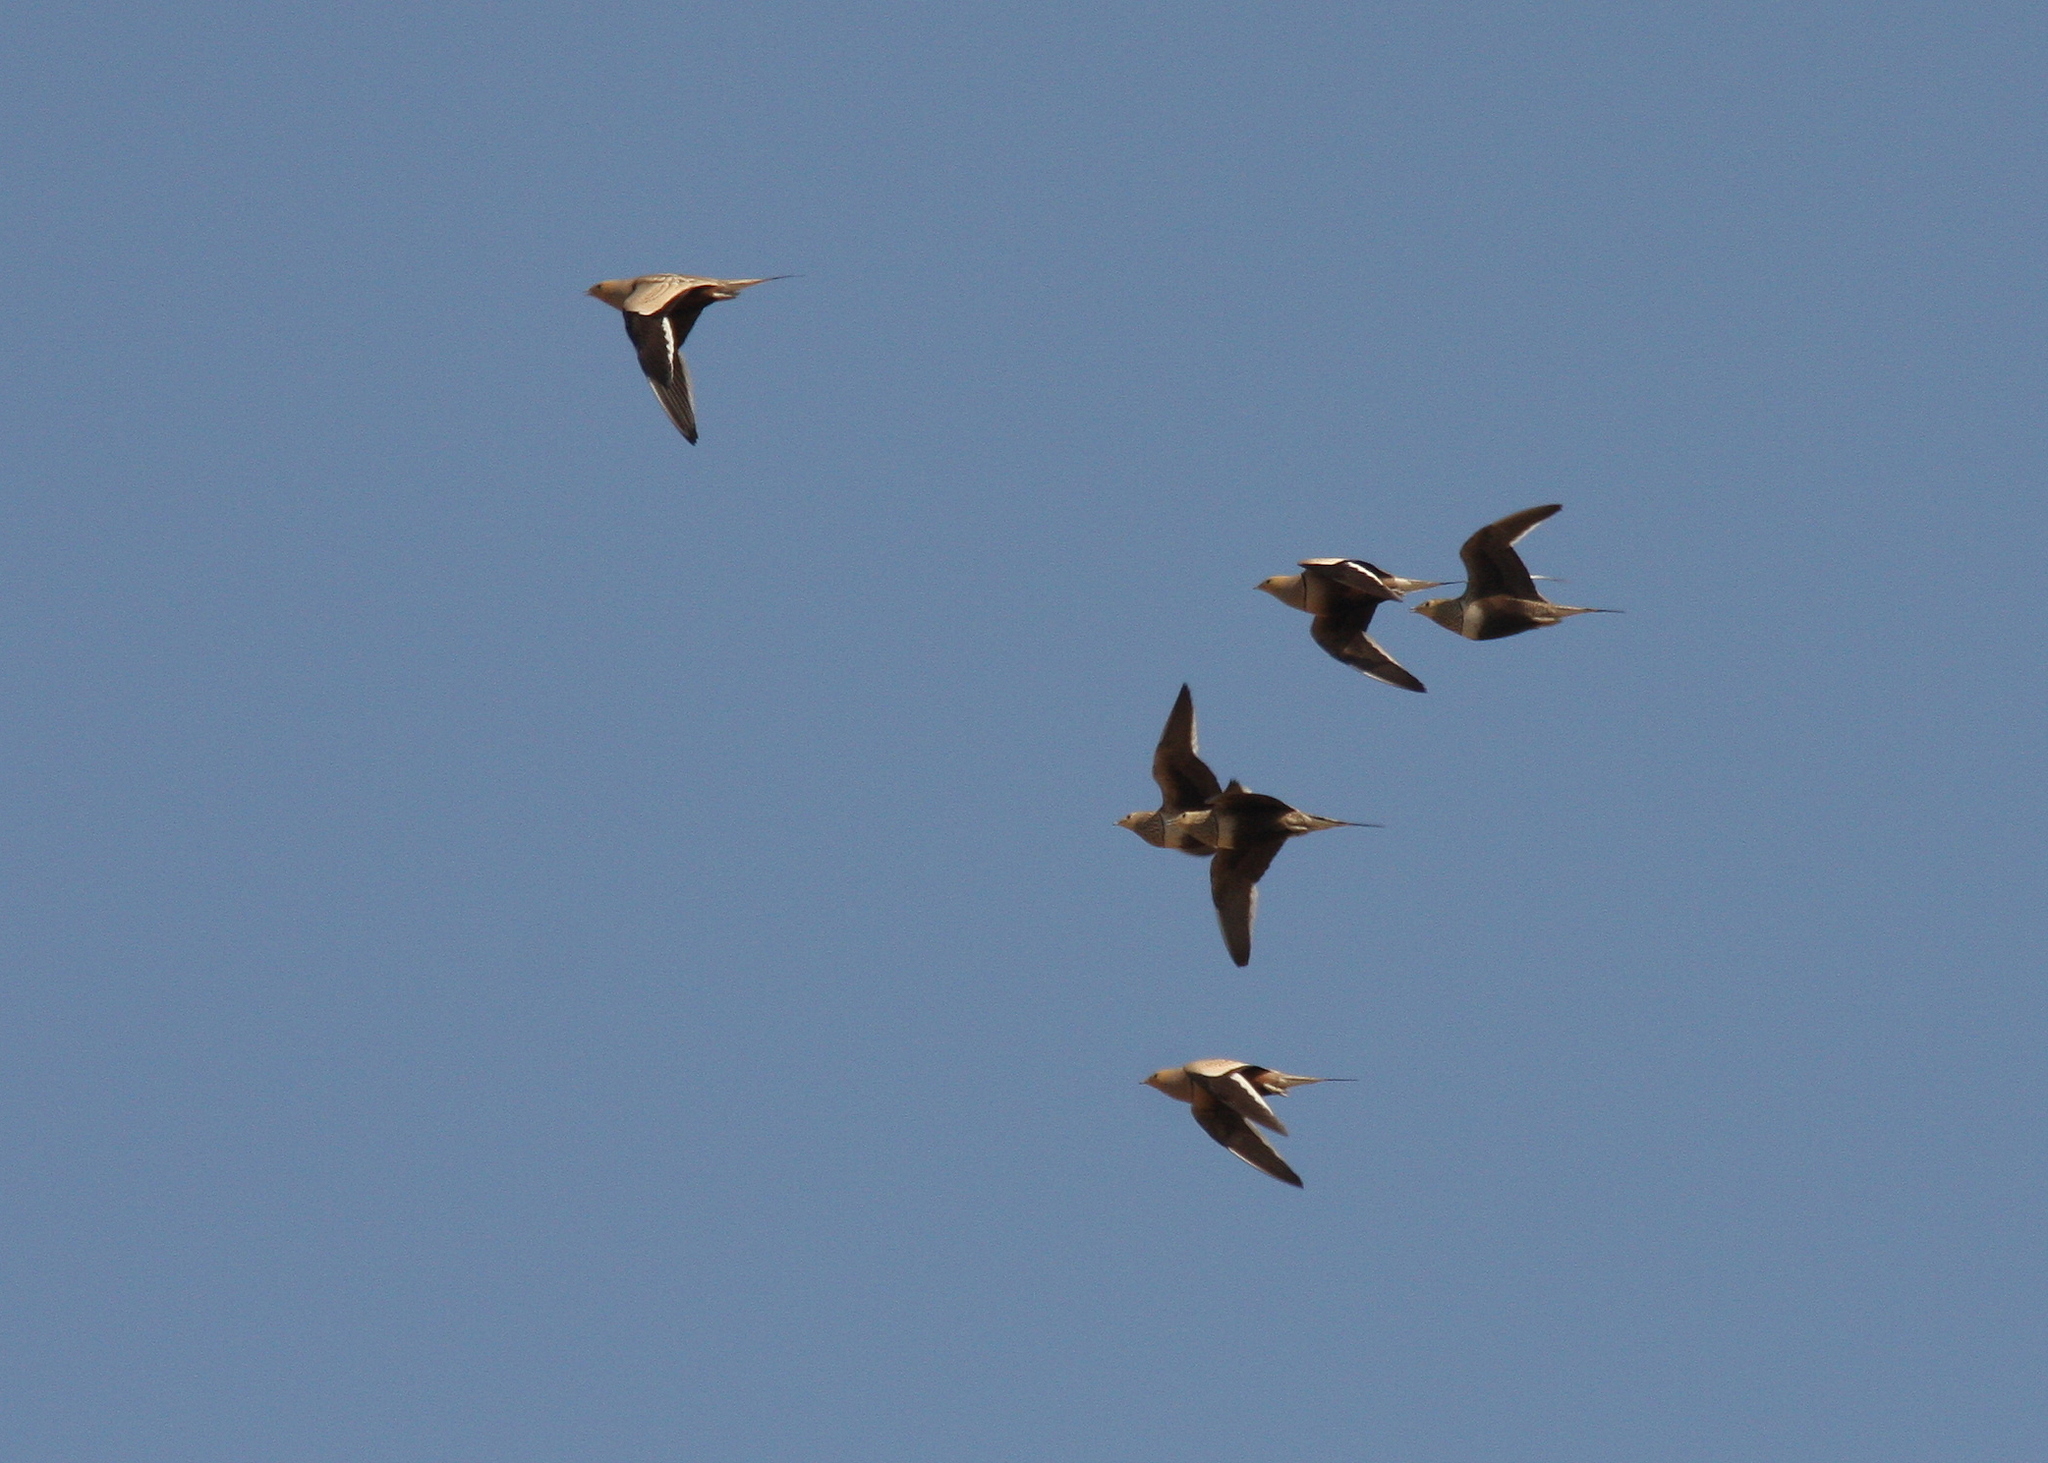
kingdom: Animalia
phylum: Chordata
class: Aves
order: Pteroclidiformes
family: Pteroclididae
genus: Pterocles
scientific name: Pterocles exustus
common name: Chestnut-bellied sandgrouse
